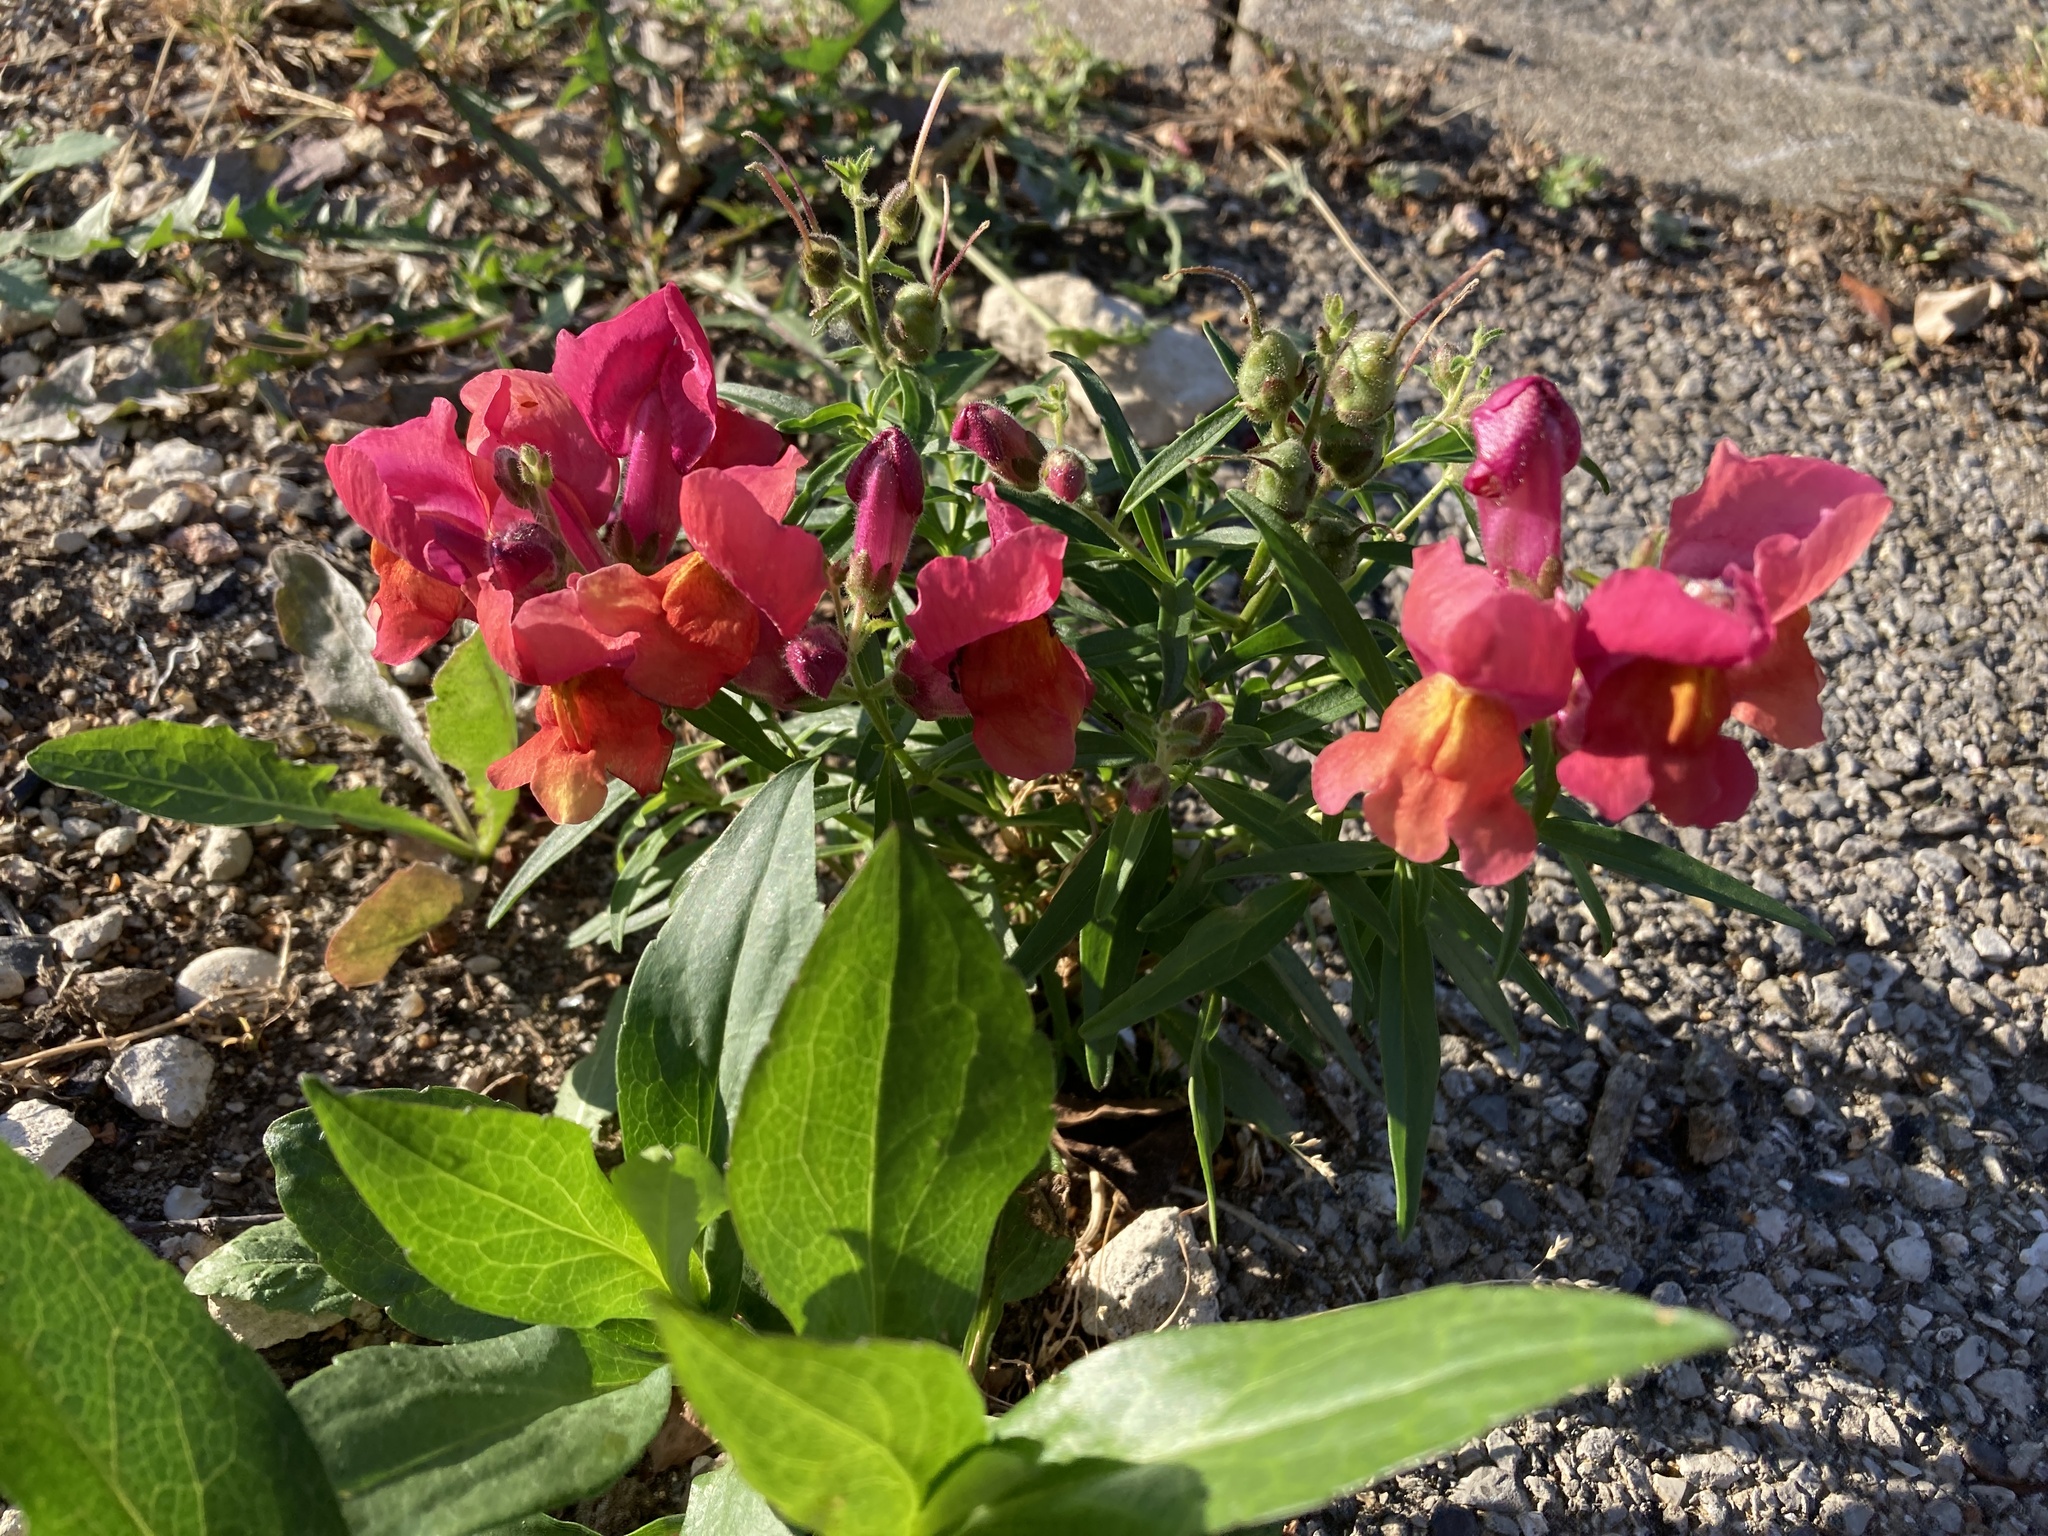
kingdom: Plantae
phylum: Tracheophyta
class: Magnoliopsida
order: Lamiales
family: Plantaginaceae
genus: Antirrhinum
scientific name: Antirrhinum majus
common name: Snapdragon
